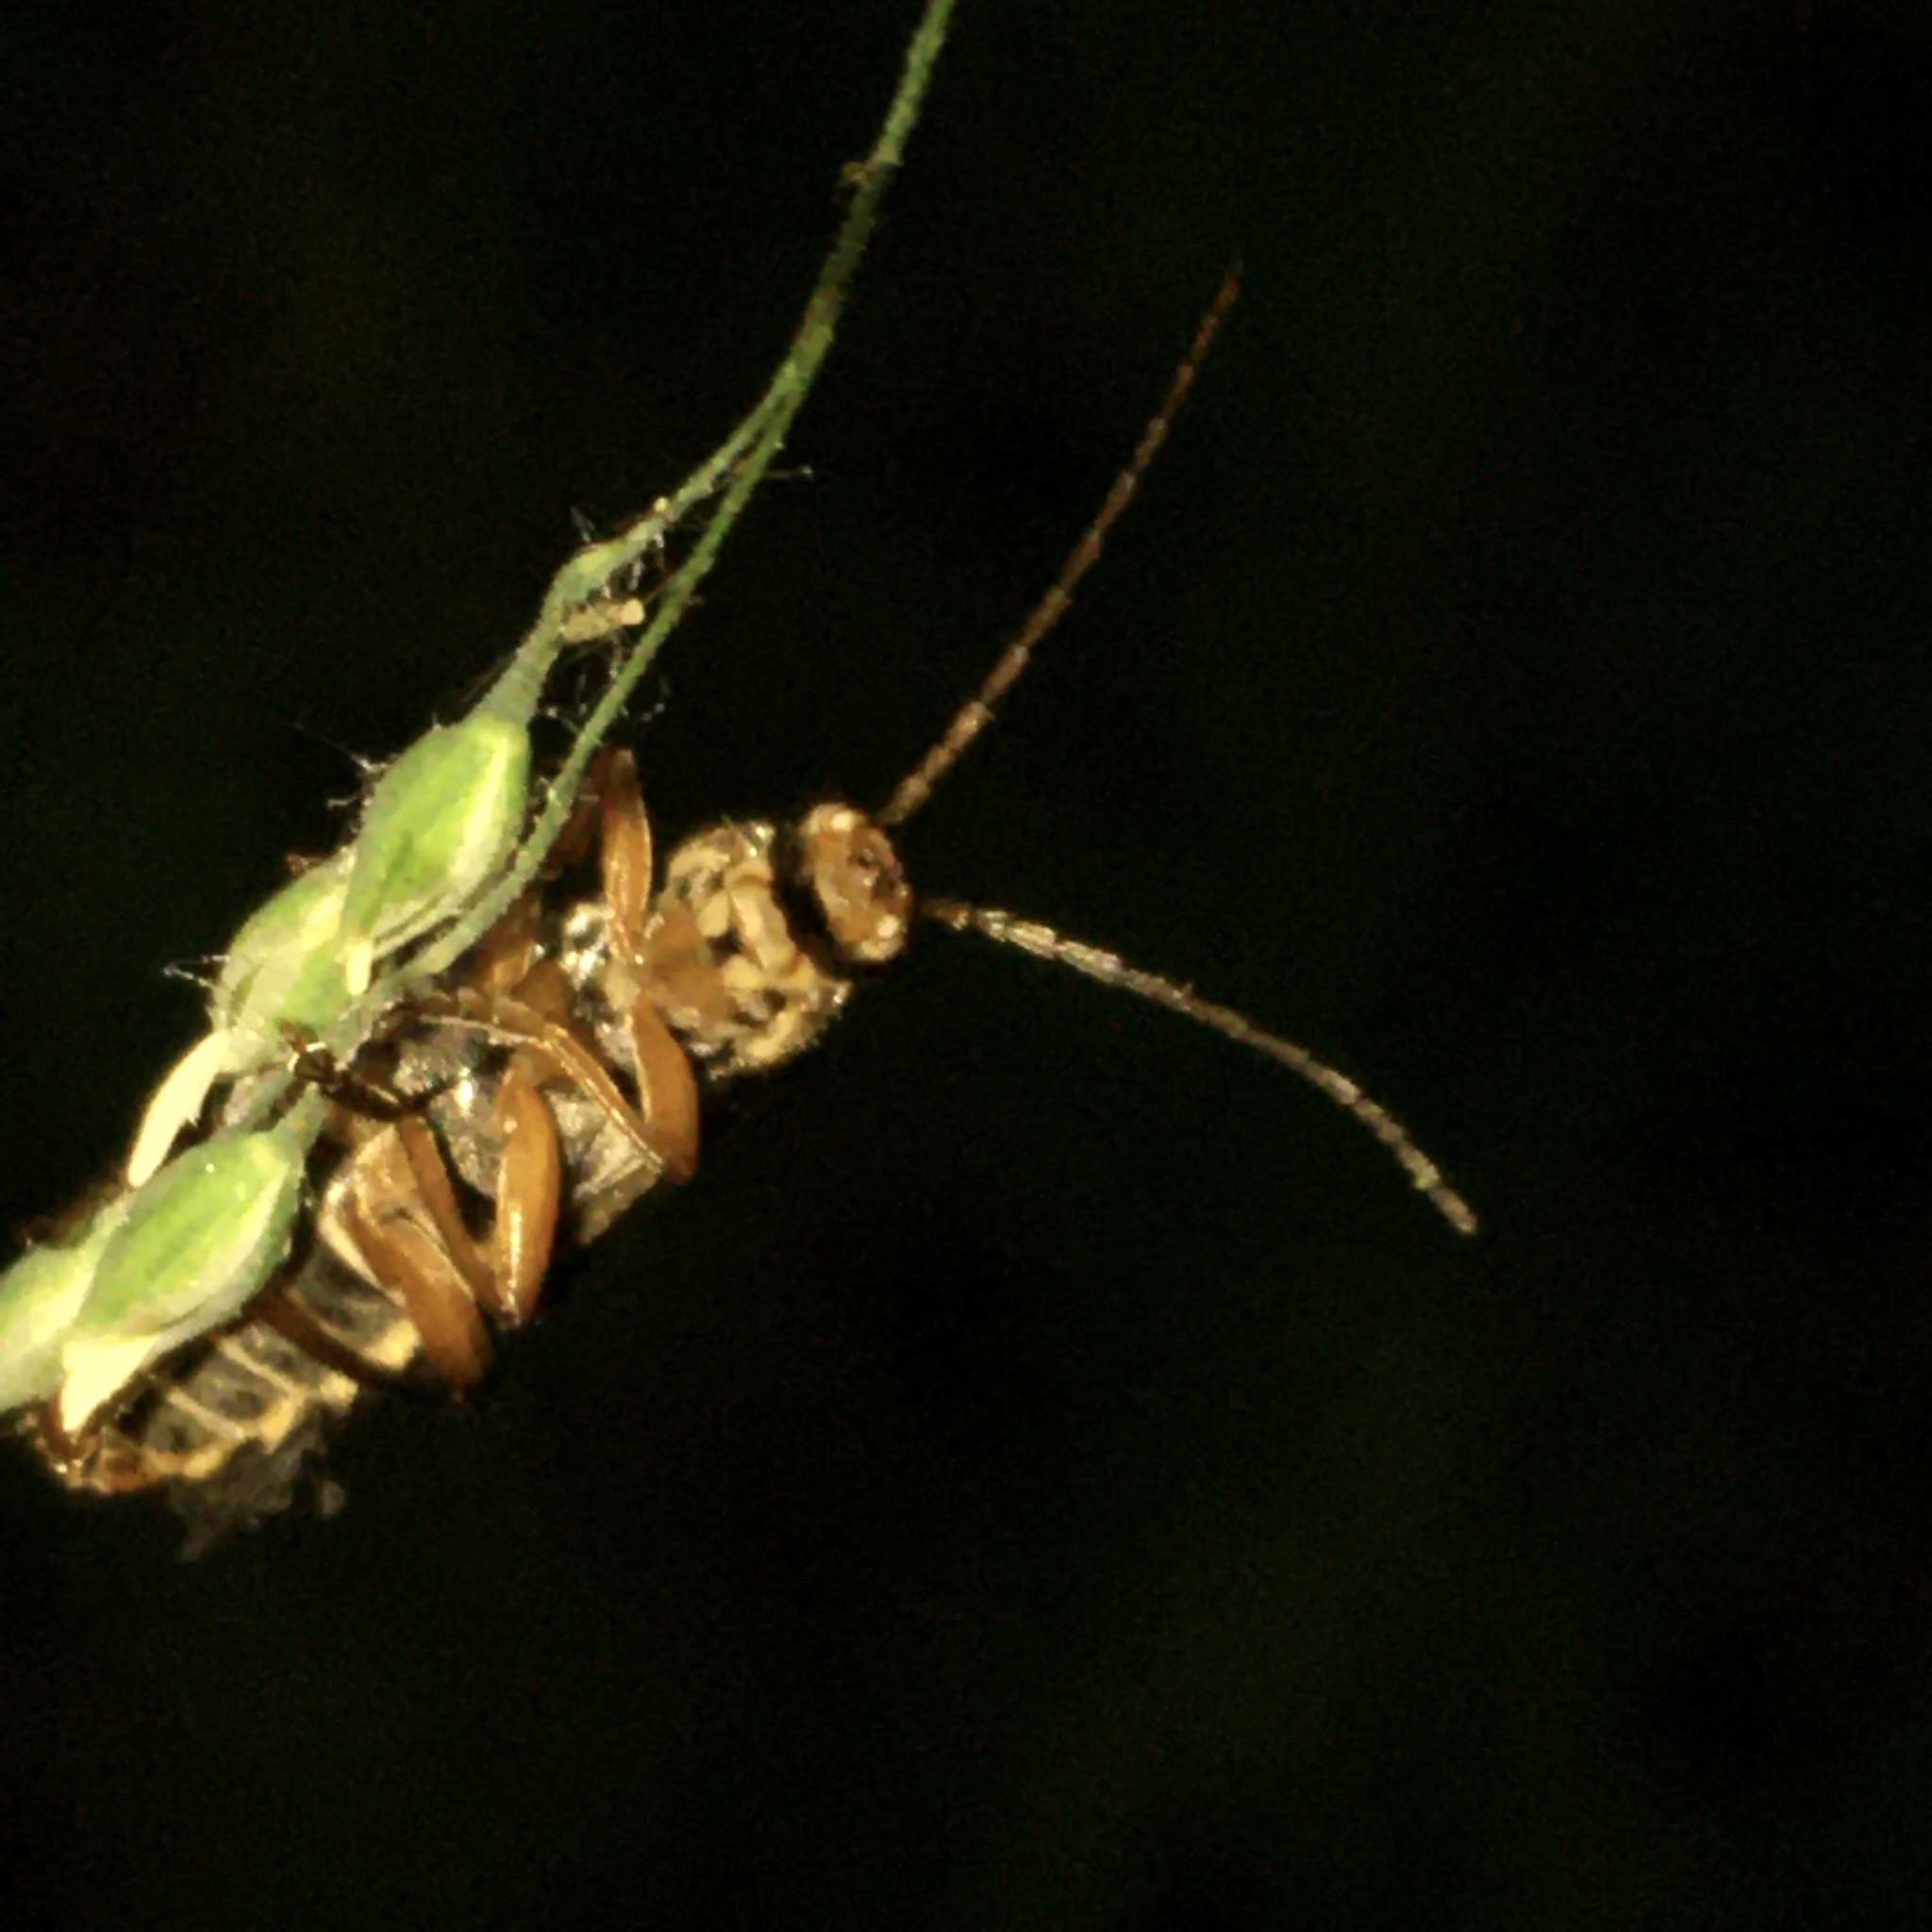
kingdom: Animalia
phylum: Arthropoda
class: Insecta
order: Coleoptera
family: Cantharidae
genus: Cantharis
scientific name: Cantharis nigricans
